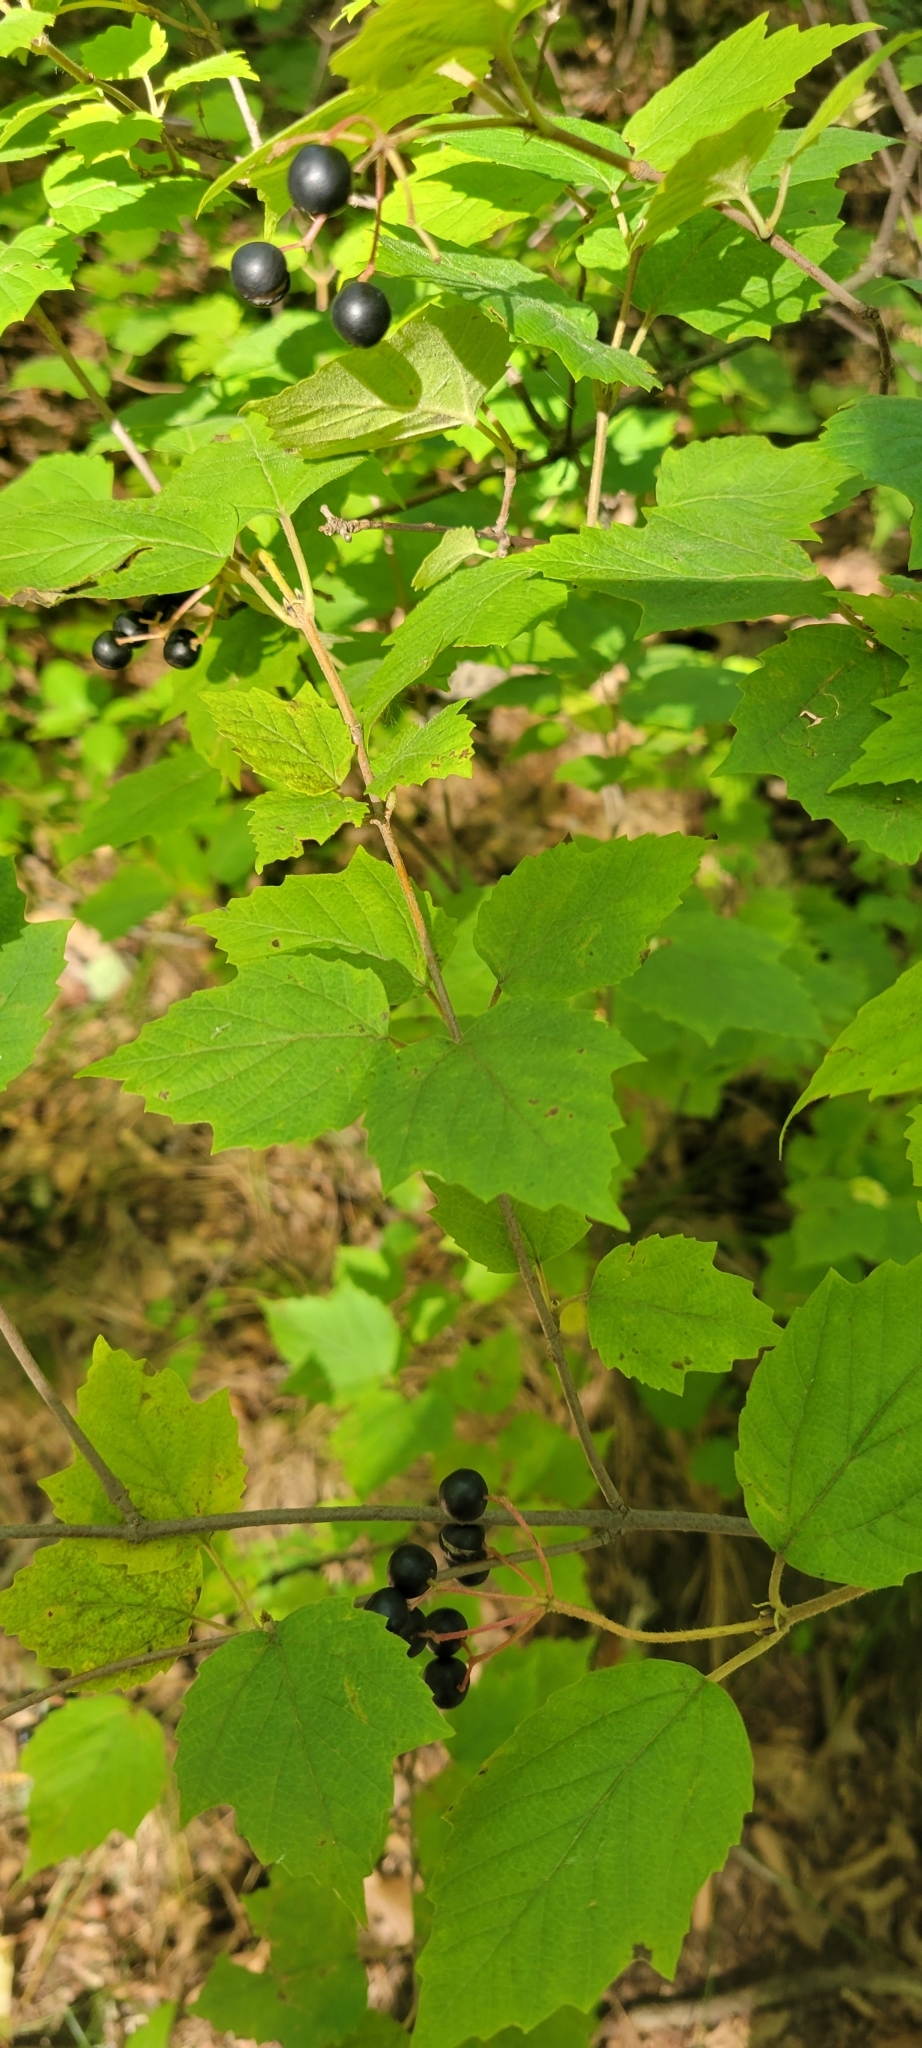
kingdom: Plantae
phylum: Tracheophyta
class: Magnoliopsida
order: Dipsacales
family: Viburnaceae
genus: Viburnum
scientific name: Viburnum acerifolium
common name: Dockmackie
